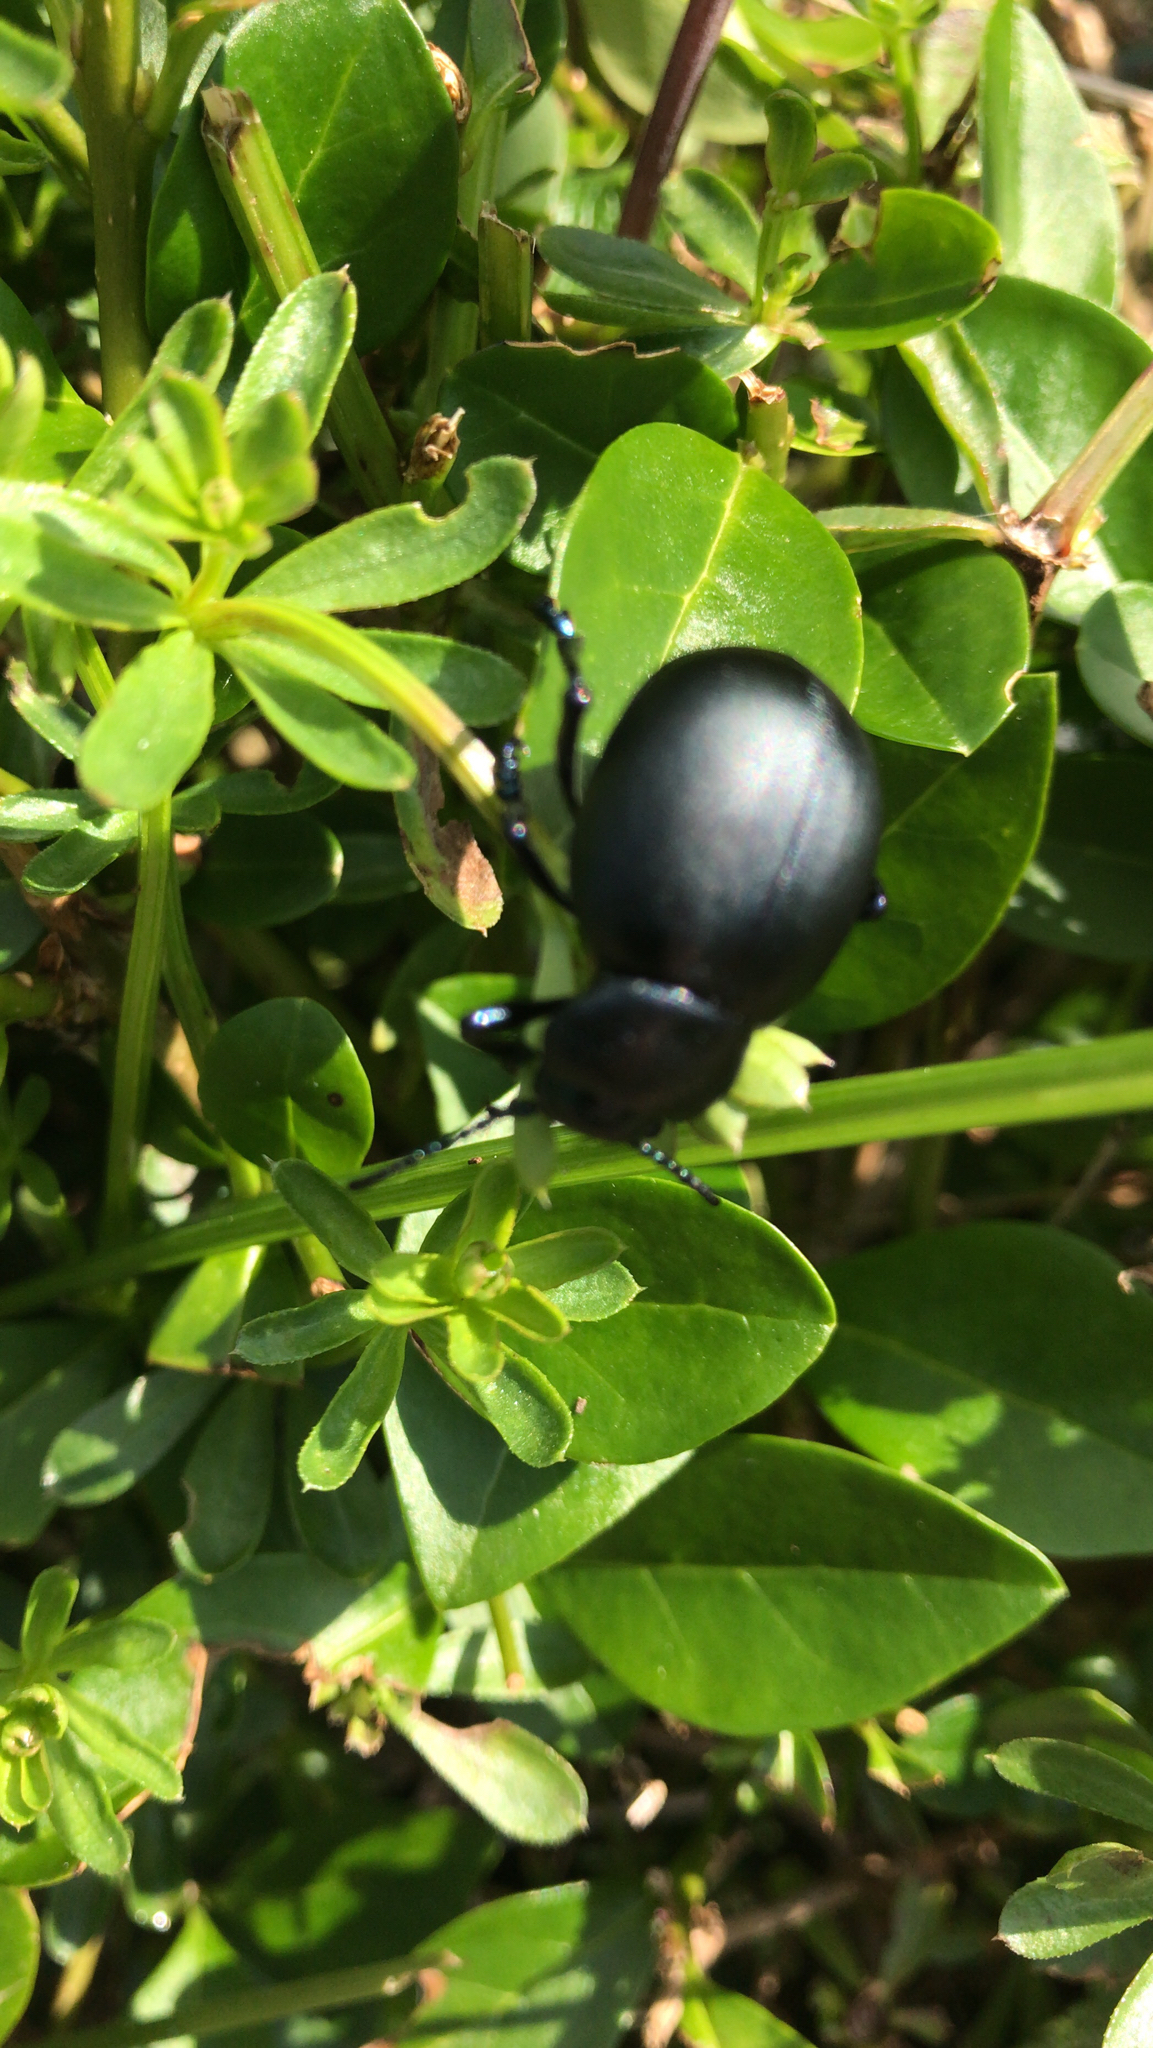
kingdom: Animalia
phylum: Arthropoda
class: Insecta
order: Coleoptera
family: Chrysomelidae
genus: Timarcha
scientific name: Timarcha tenebricosa
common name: Bloody-nosed beetle
